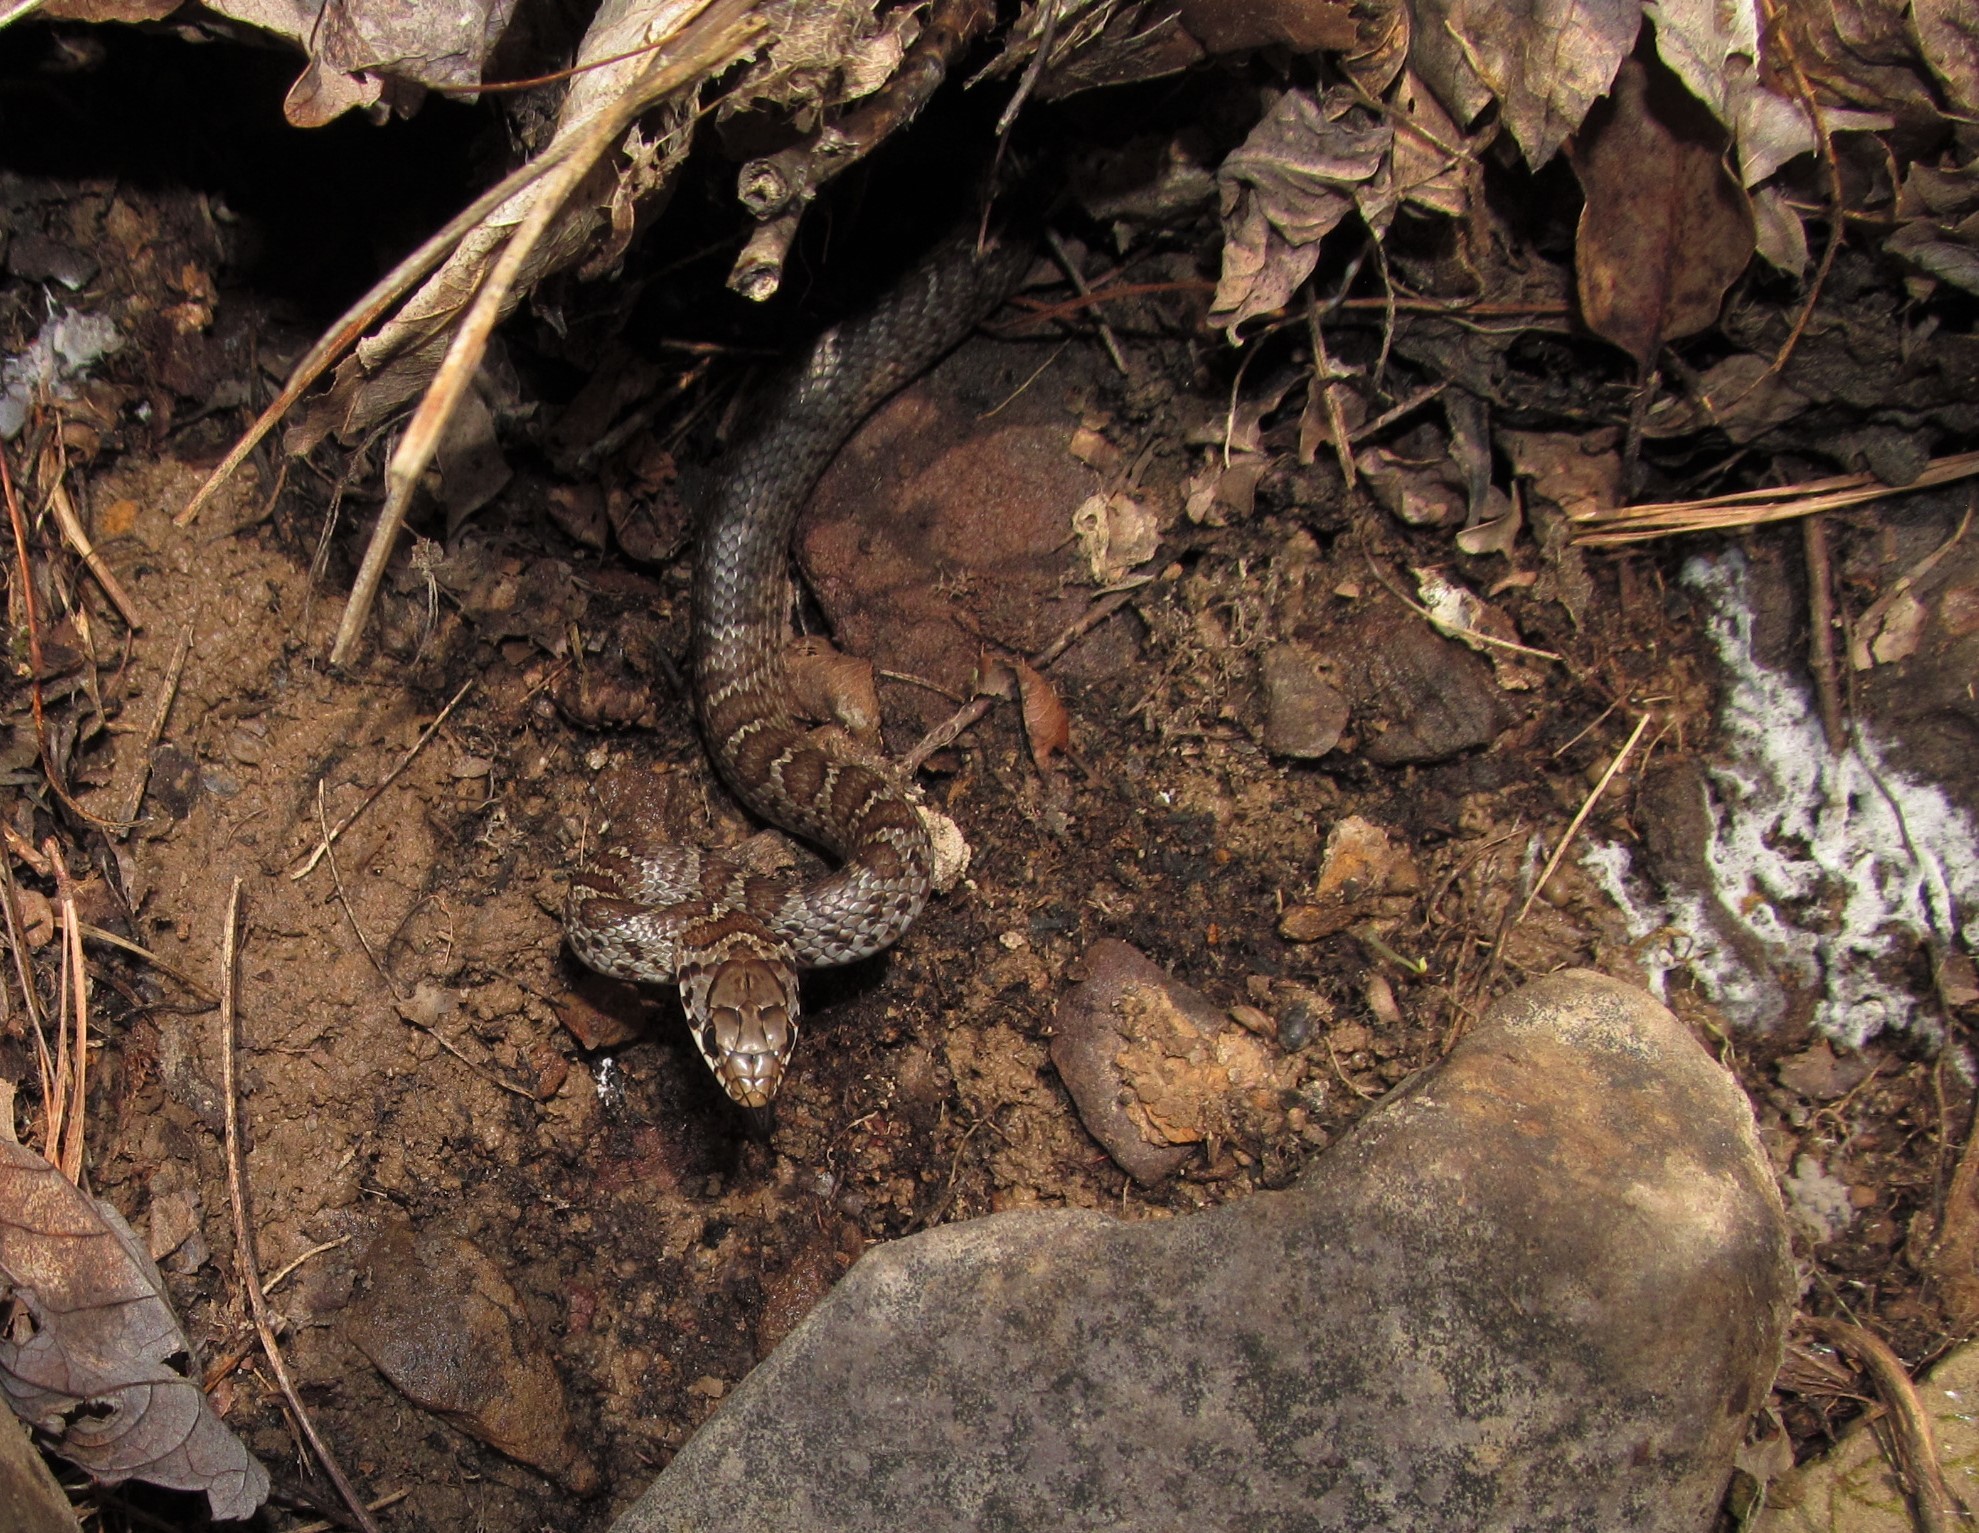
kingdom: Animalia
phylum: Chordata
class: Squamata
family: Colubridae
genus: Coluber
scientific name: Coluber constrictor
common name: Eastern racer
